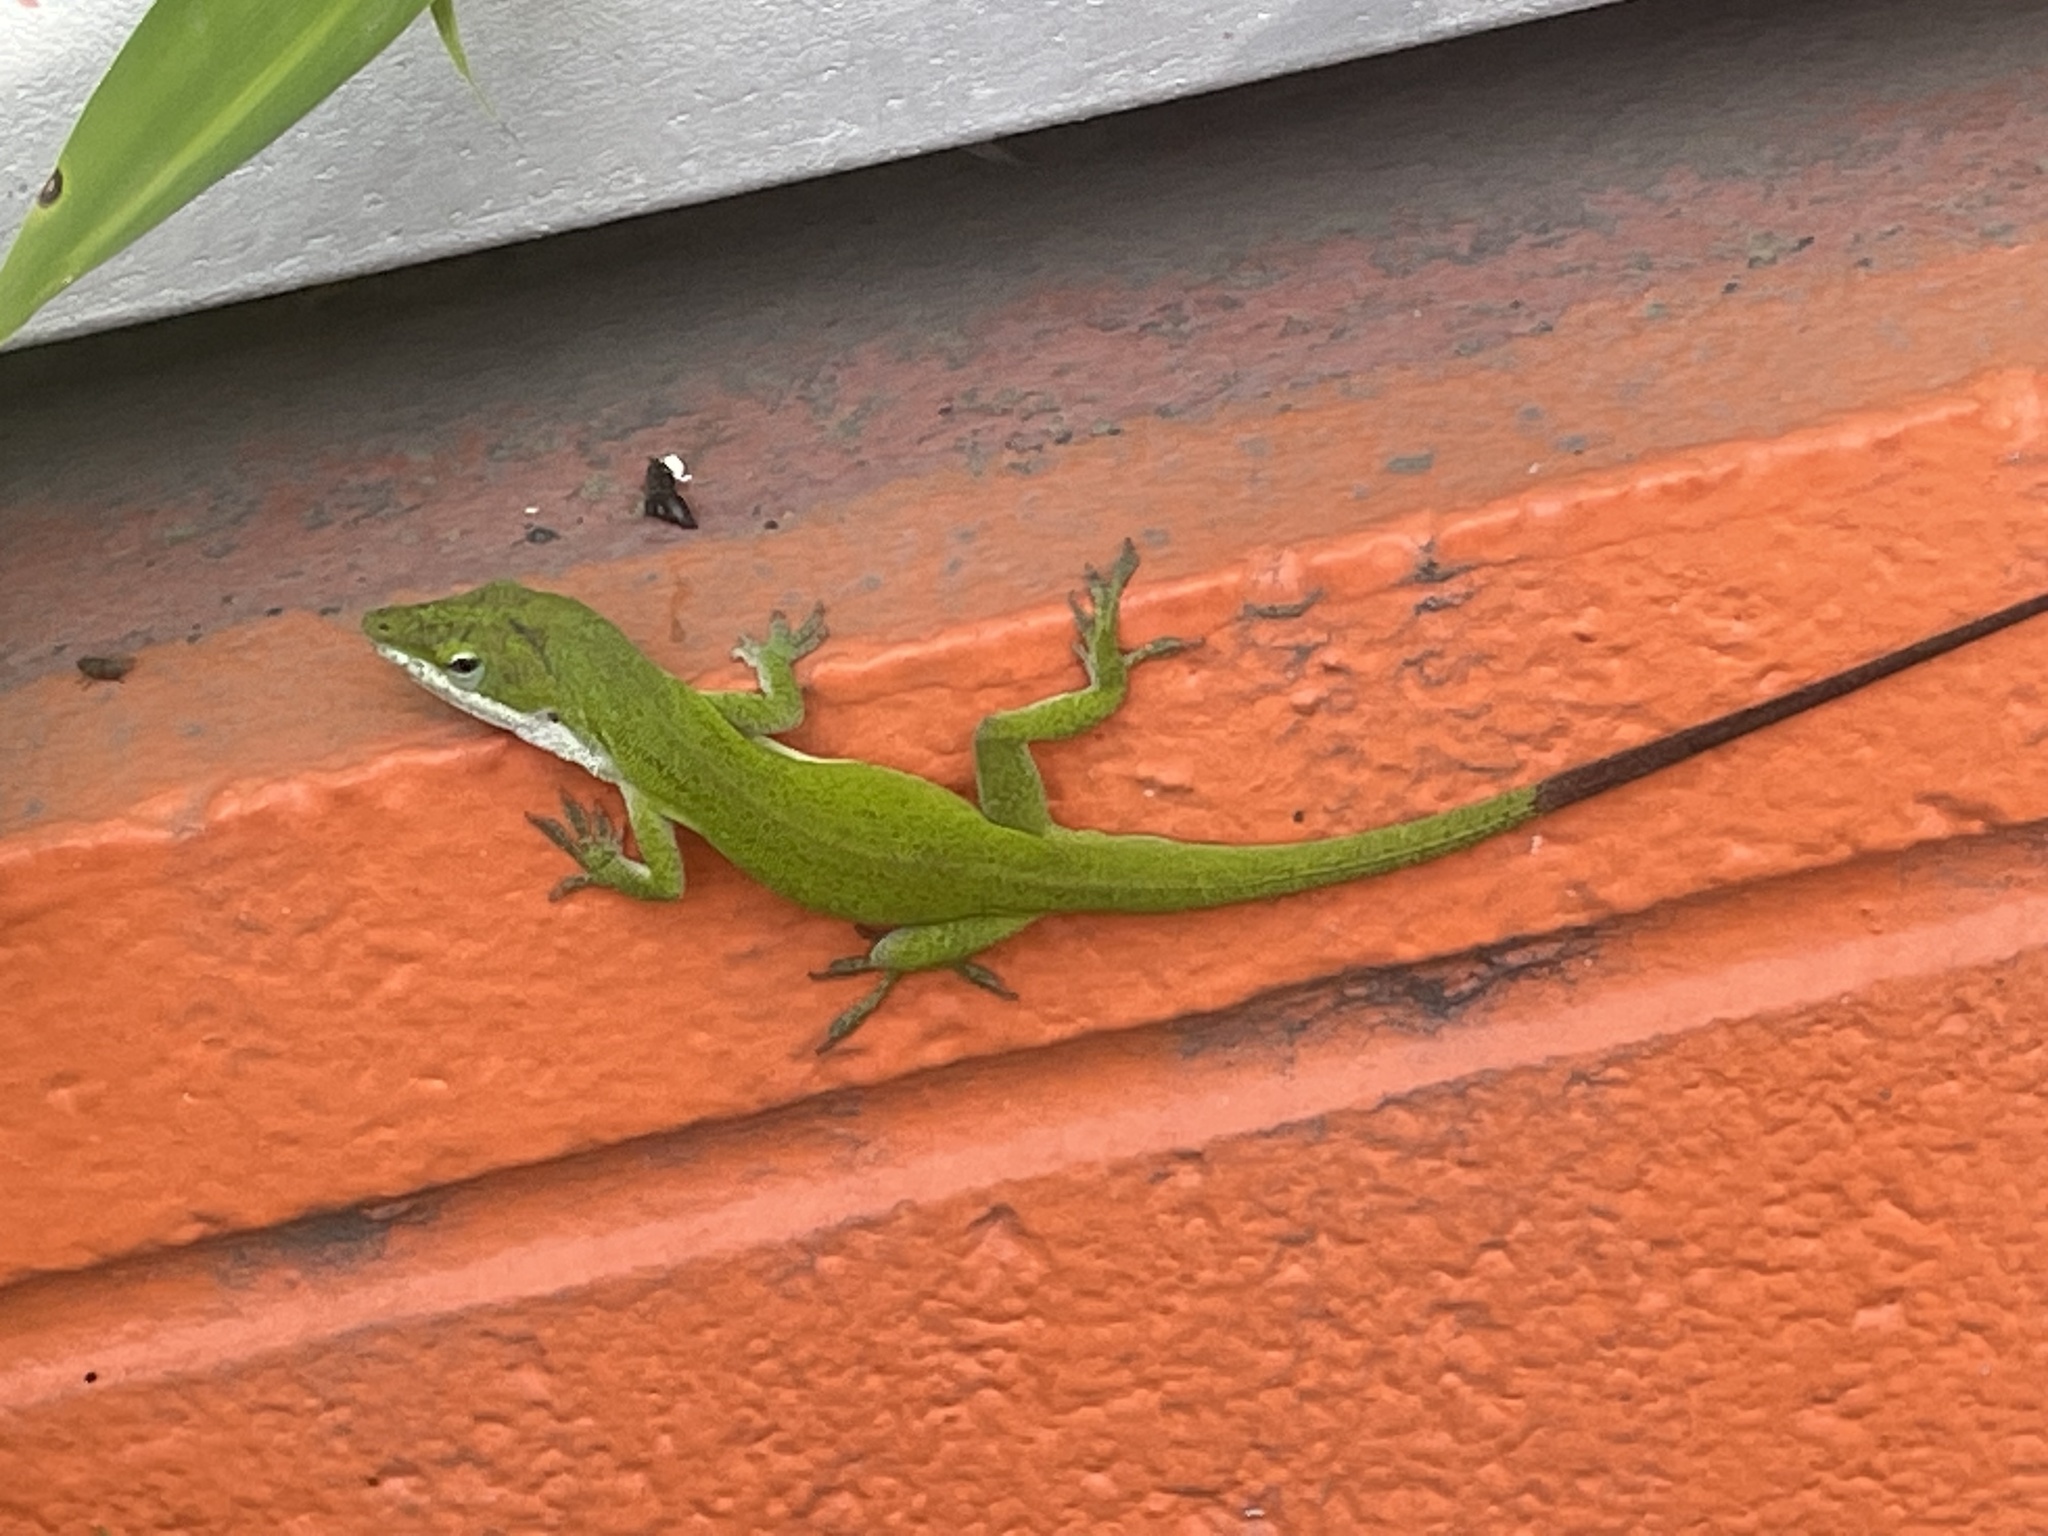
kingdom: Animalia
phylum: Chordata
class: Squamata
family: Dactyloidae
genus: Anolis
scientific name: Anolis carolinensis
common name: Green anole
